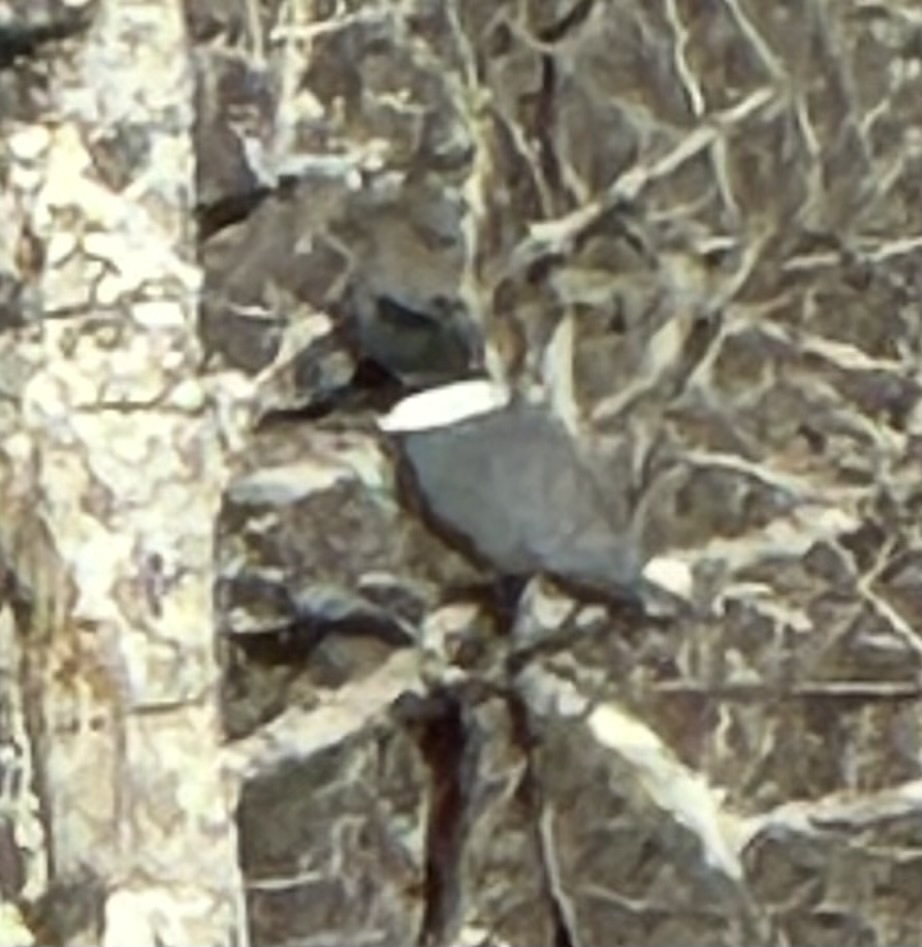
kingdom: Animalia
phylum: Chordata
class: Aves
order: Coraciiformes
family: Alcedinidae
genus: Megaceryle
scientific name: Megaceryle alcyon
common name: Belted kingfisher
